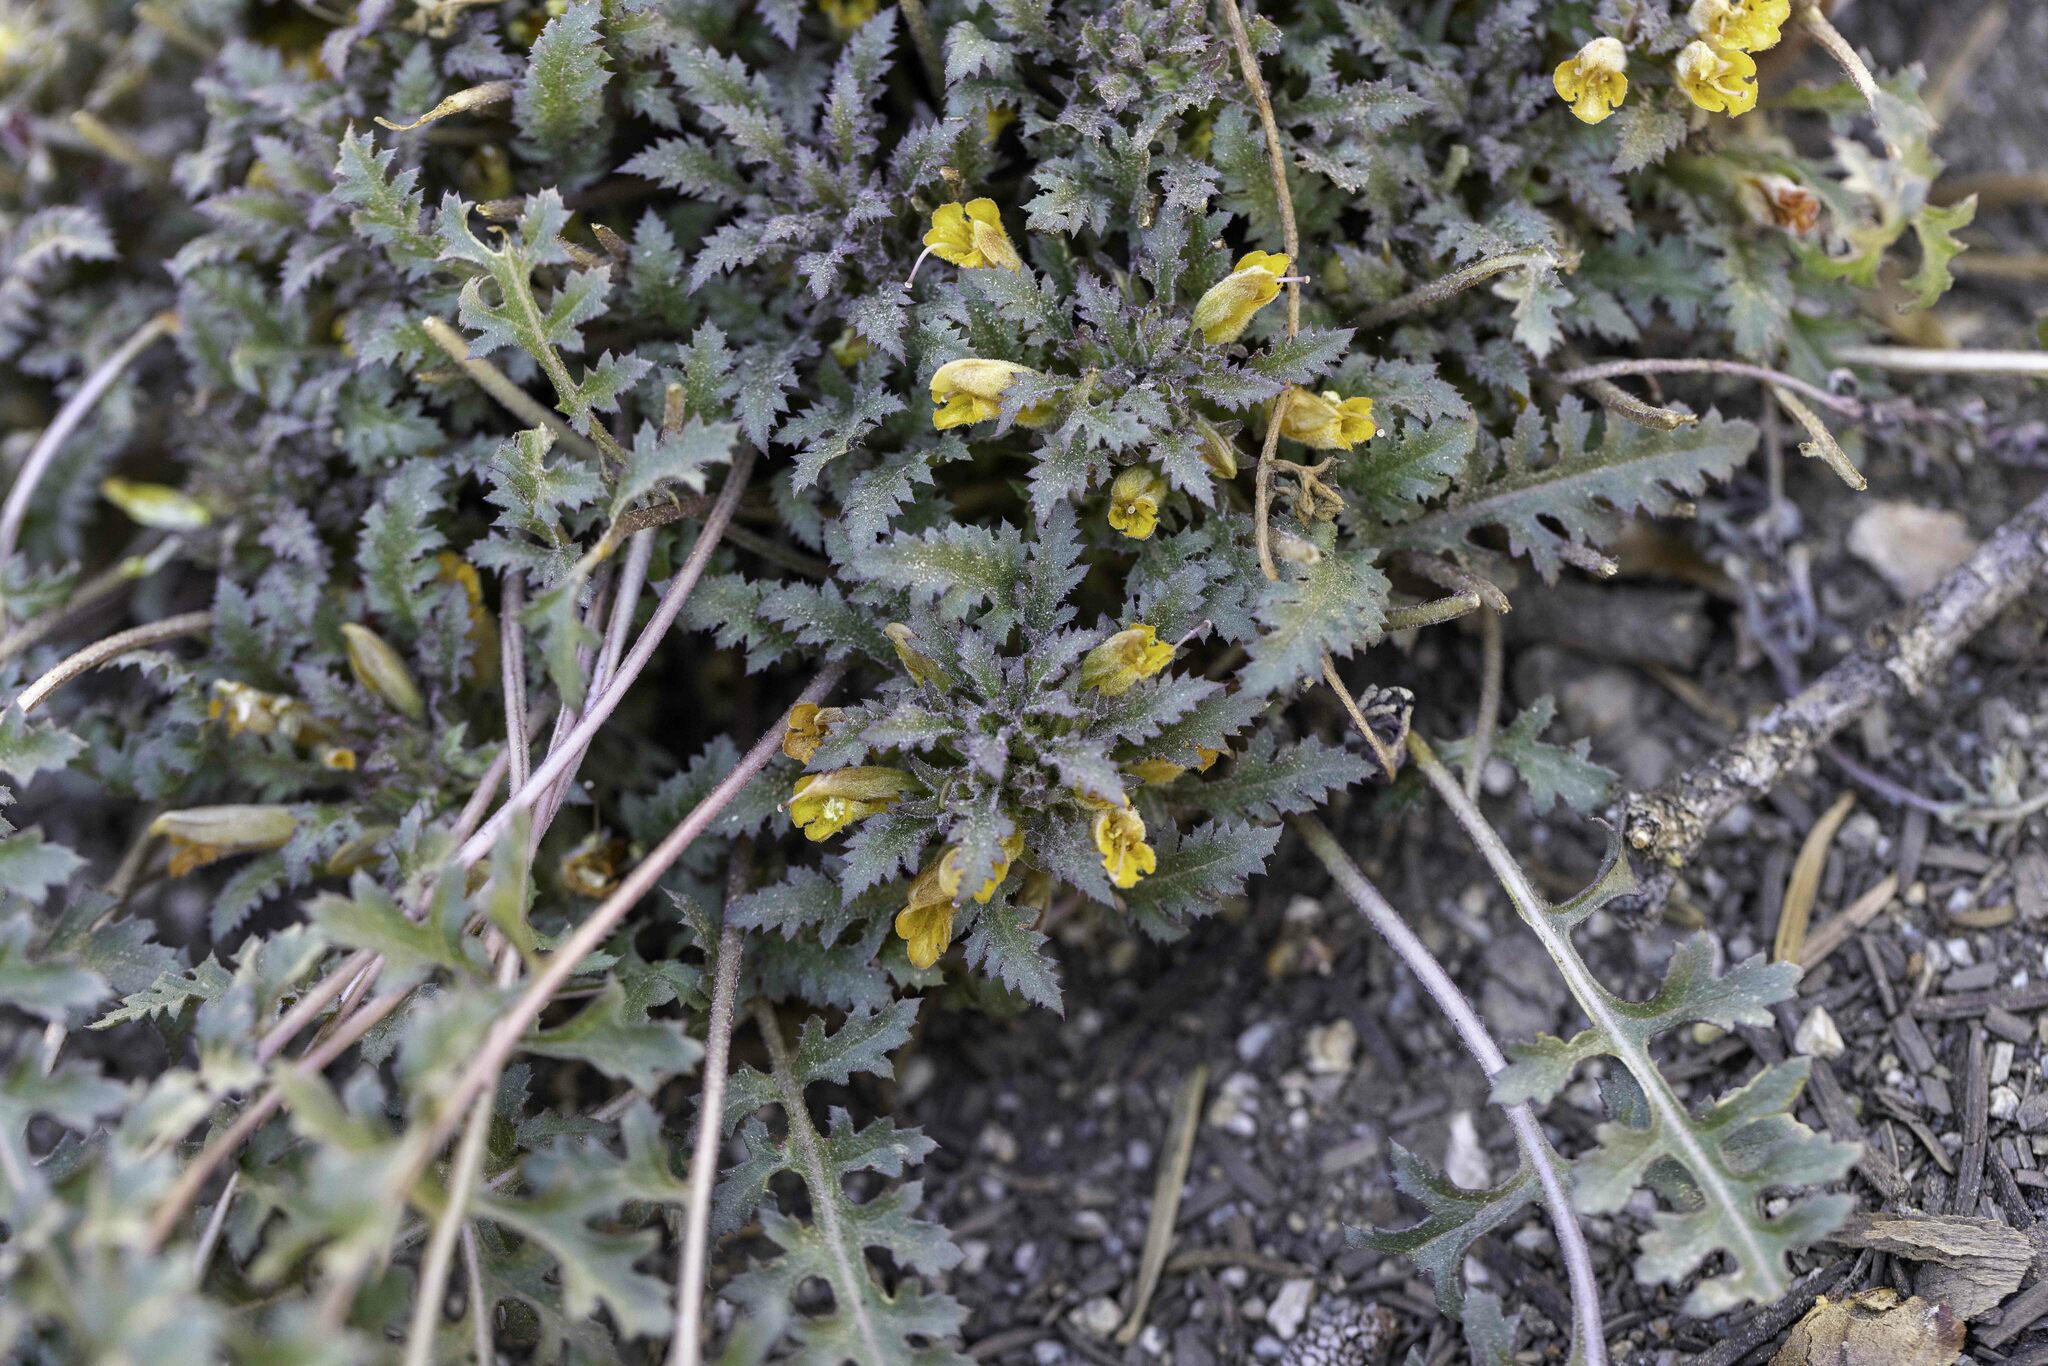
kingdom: Plantae
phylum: Tracheophyta
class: Magnoliopsida
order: Lamiales
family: Orobanchaceae
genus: Pedicularis
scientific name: Pedicularis semibarbata
